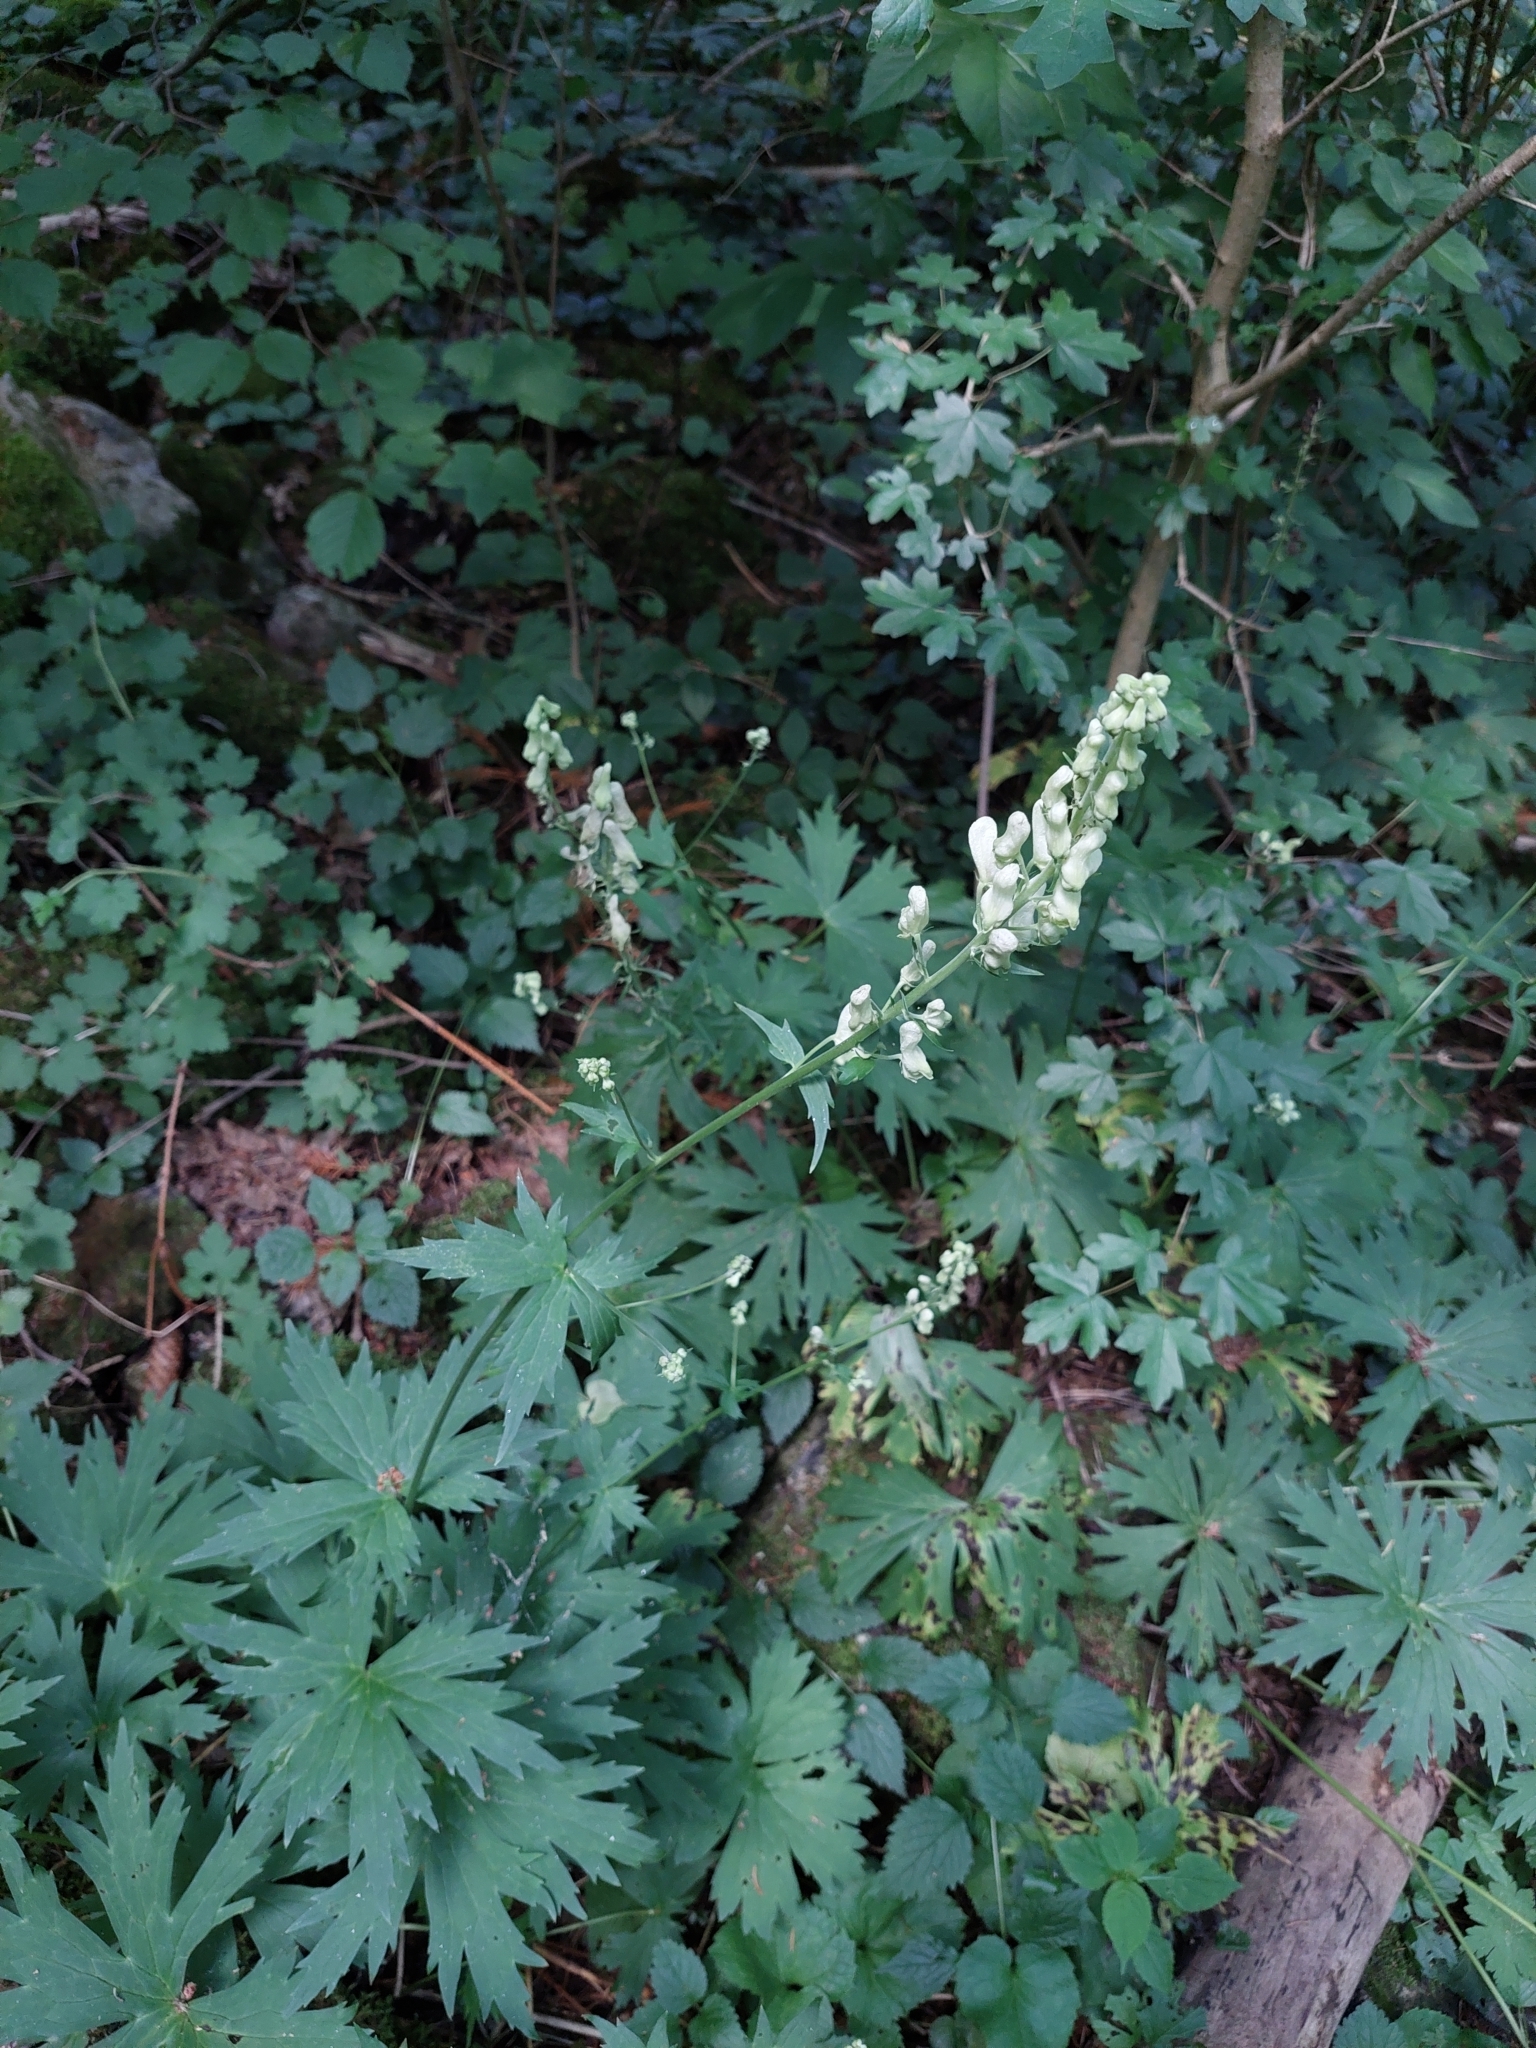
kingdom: Plantae
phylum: Tracheophyta
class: Magnoliopsida
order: Ranunculales
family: Ranunculaceae
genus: Aconitum
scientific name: Aconitum lycoctonum
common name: Wolf's-bane
